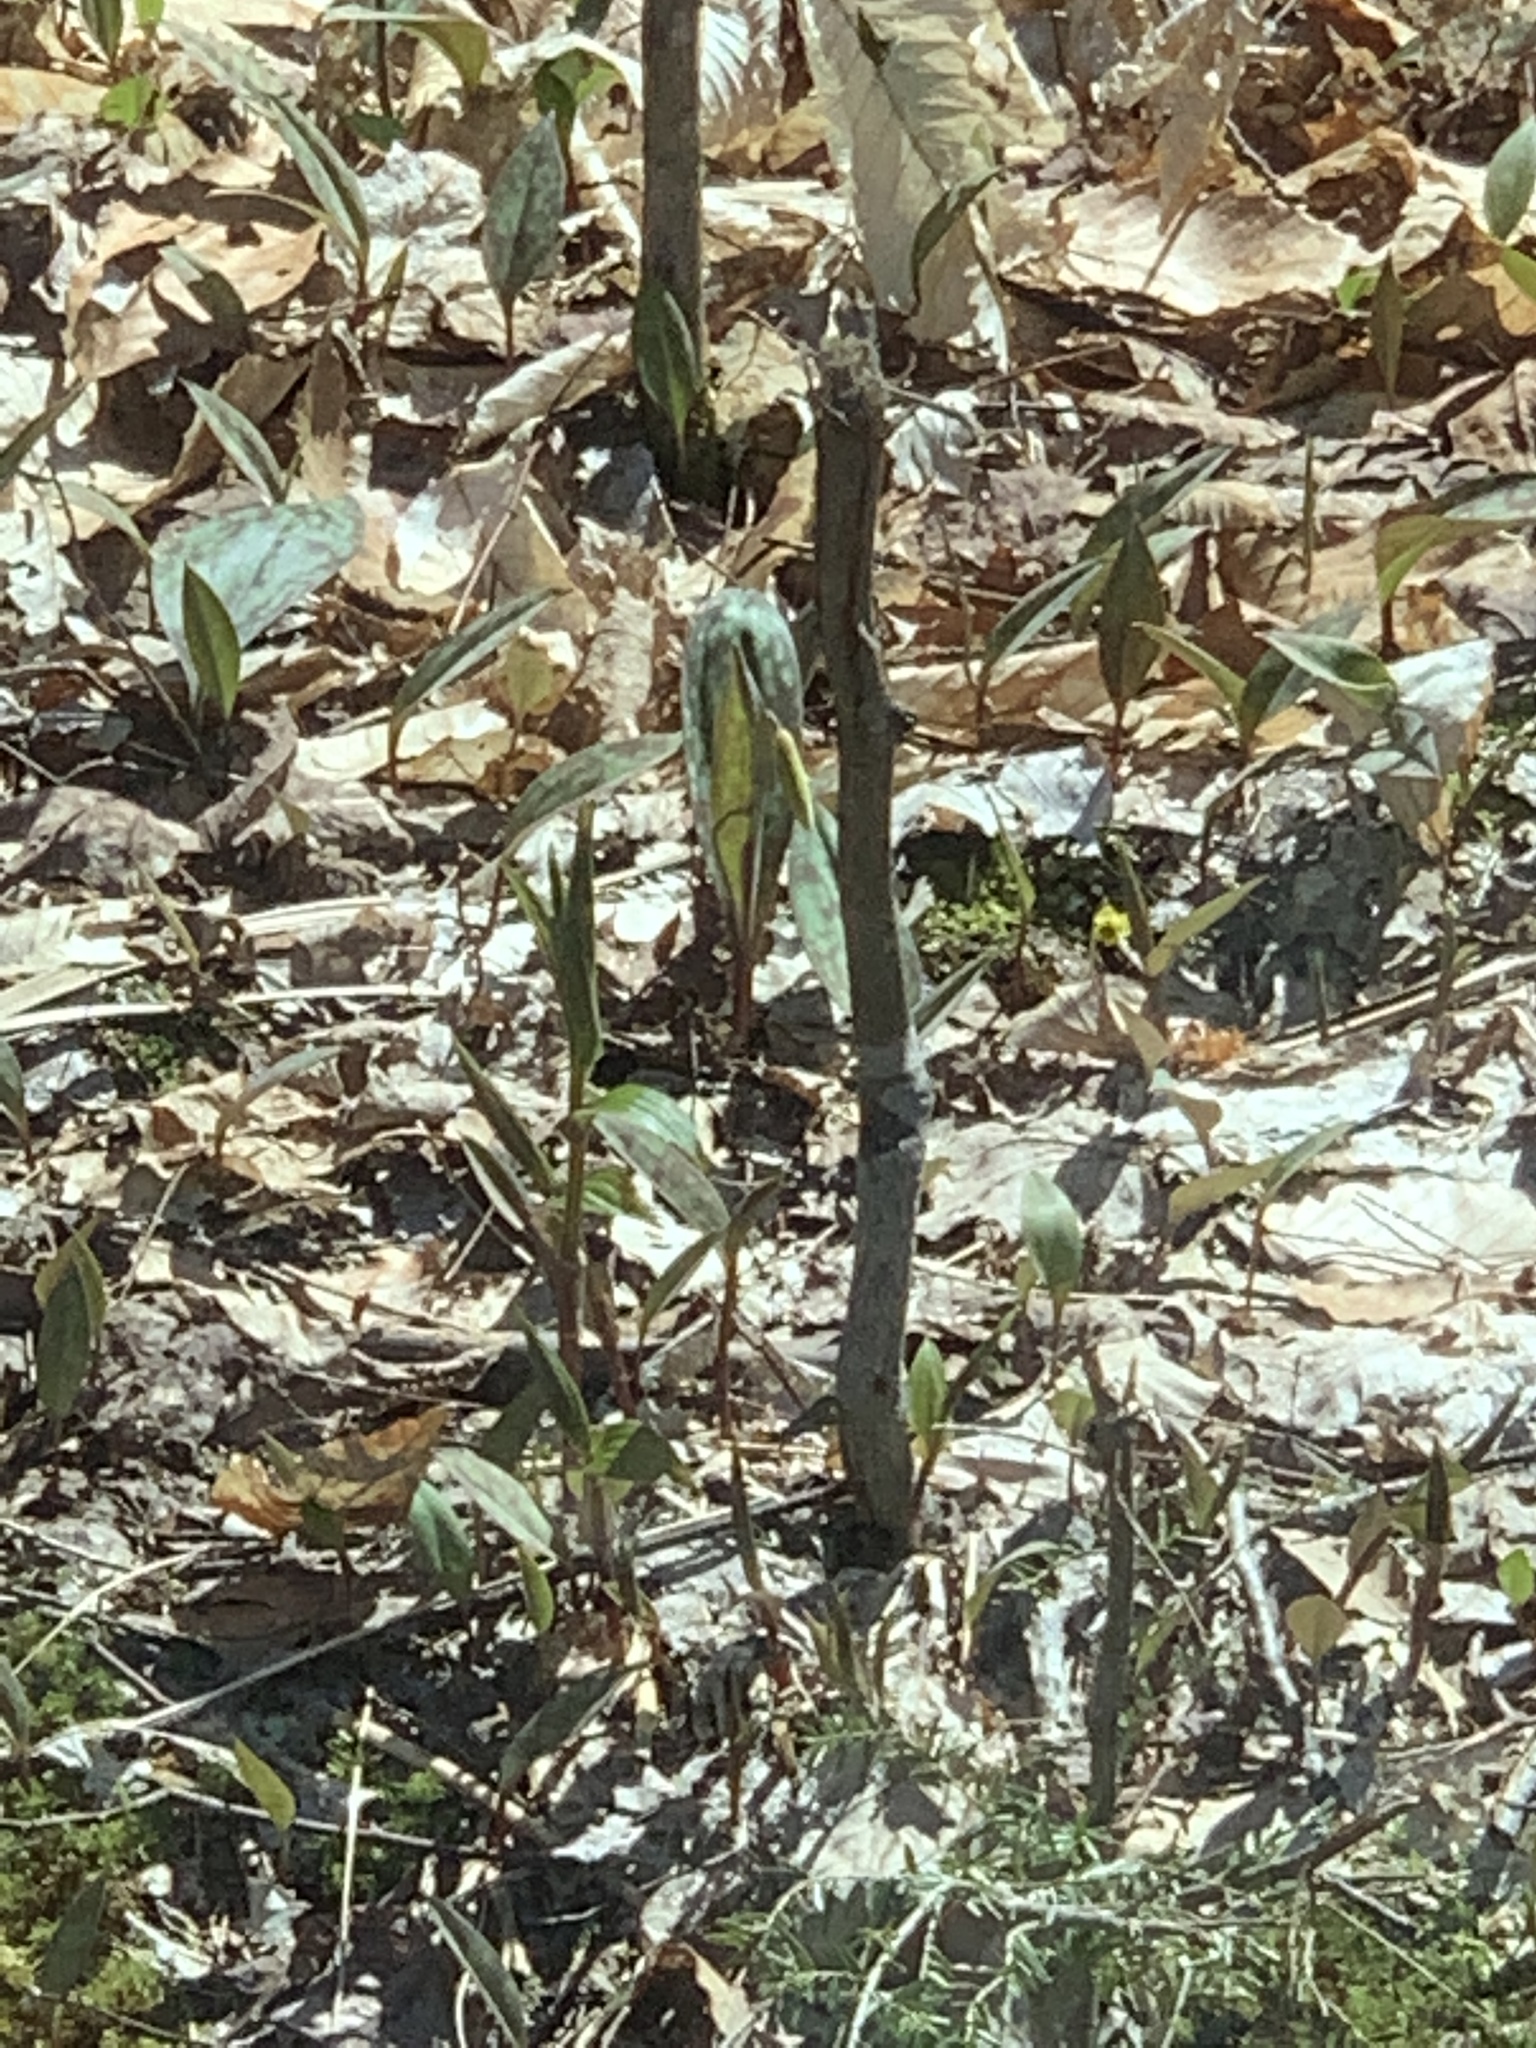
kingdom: Plantae
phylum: Tracheophyta
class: Liliopsida
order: Liliales
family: Liliaceae
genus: Erythronium
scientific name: Erythronium americanum
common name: Yellow adder's-tongue
